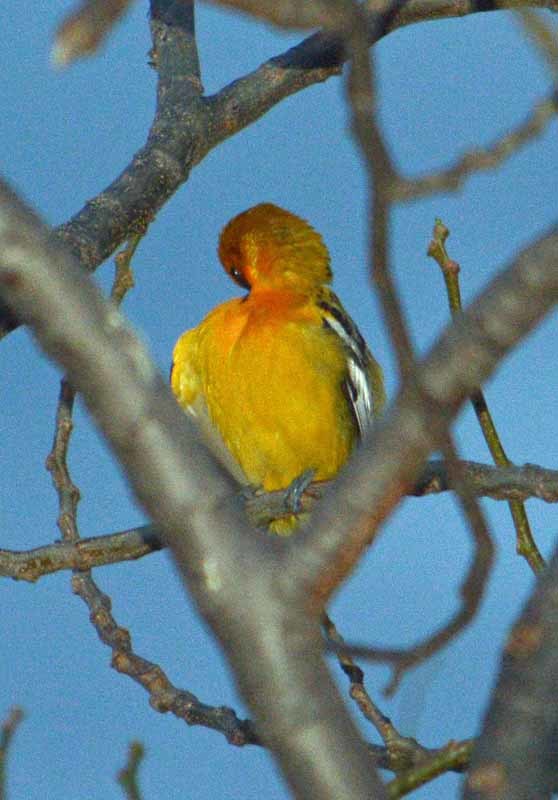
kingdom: Animalia
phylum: Chordata
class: Aves
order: Passeriformes
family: Icteridae
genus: Icterus
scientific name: Icterus pustulatus
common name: Streak-backed oriole
